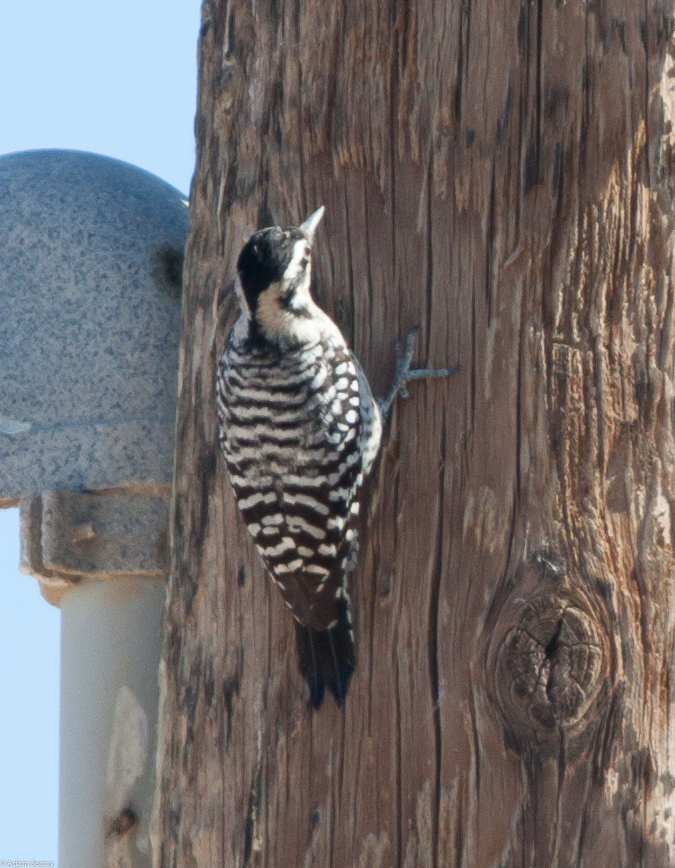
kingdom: Animalia
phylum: Chordata
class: Aves
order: Piciformes
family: Picidae
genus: Dryobates
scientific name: Dryobates scalaris
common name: Ladder-backed woodpecker
